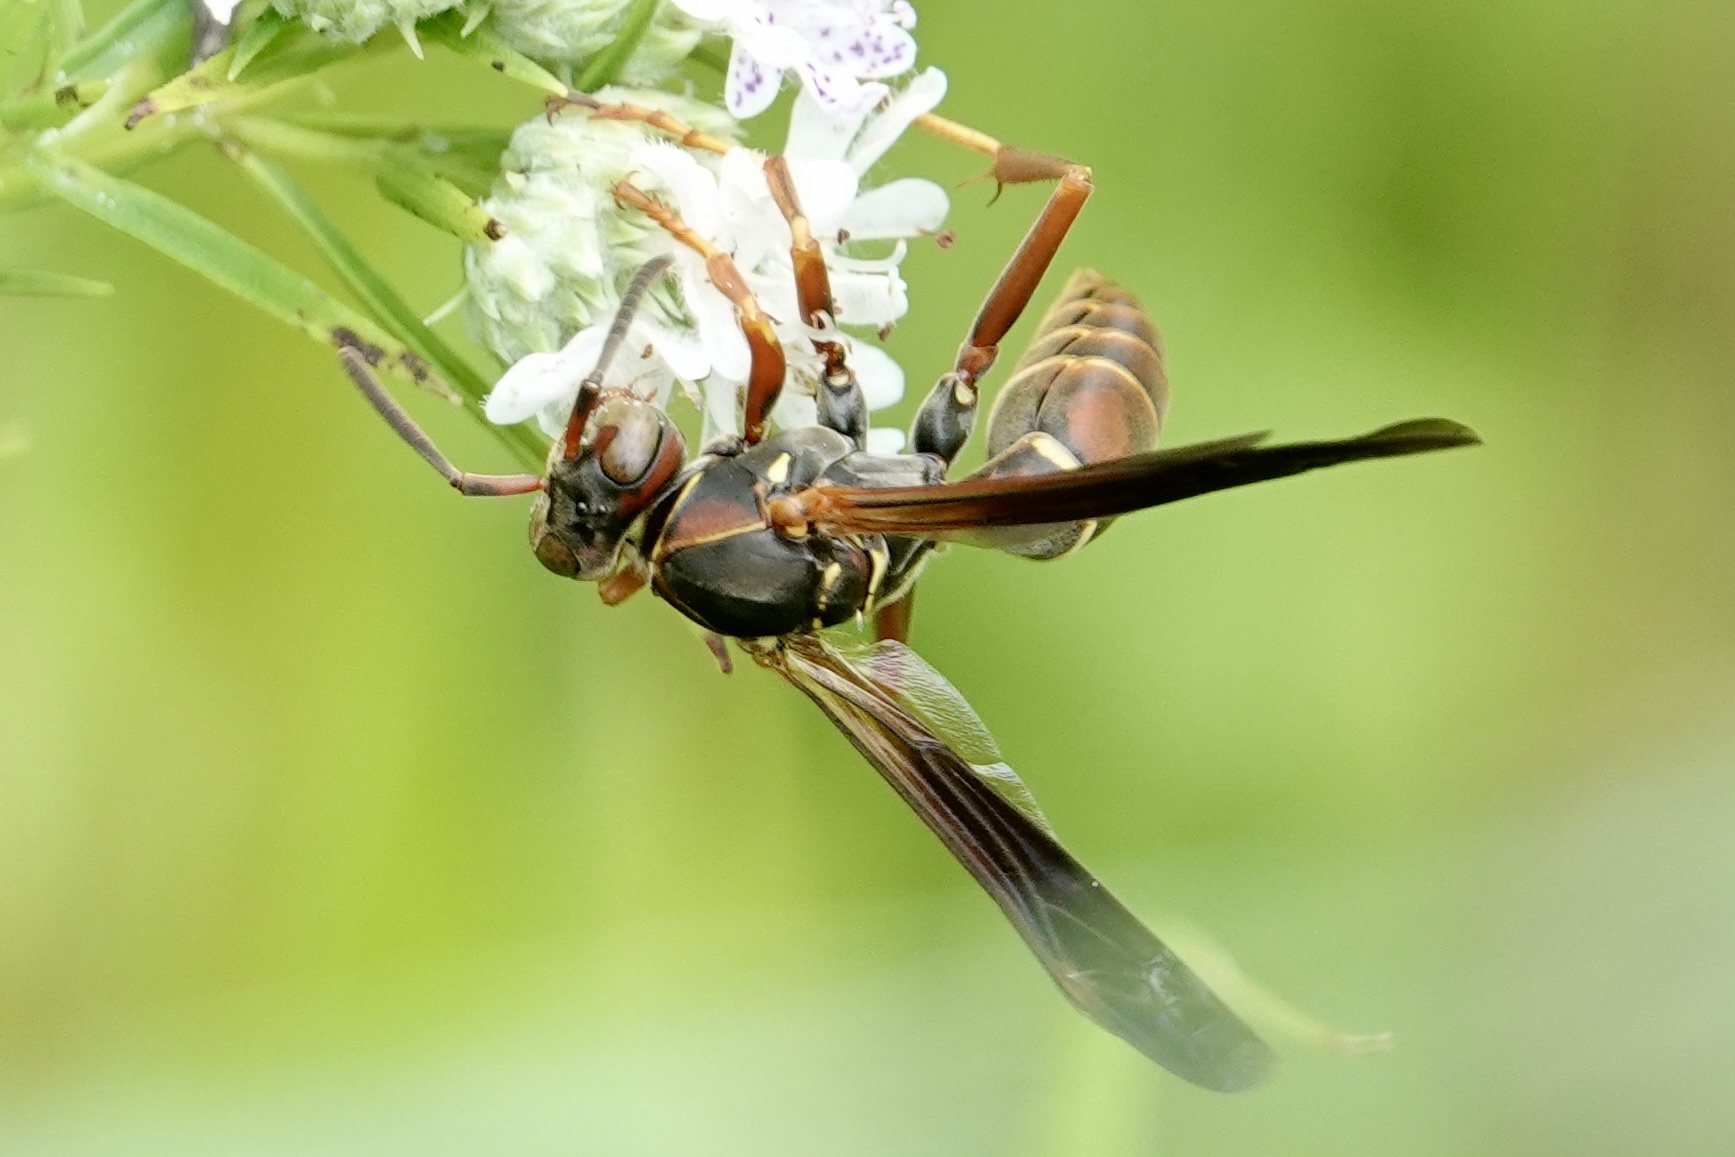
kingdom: Animalia
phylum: Arthropoda
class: Insecta
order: Hymenoptera
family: Eumenidae
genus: Polistes
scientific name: Polistes fuscatus
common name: Dark paper wasp
